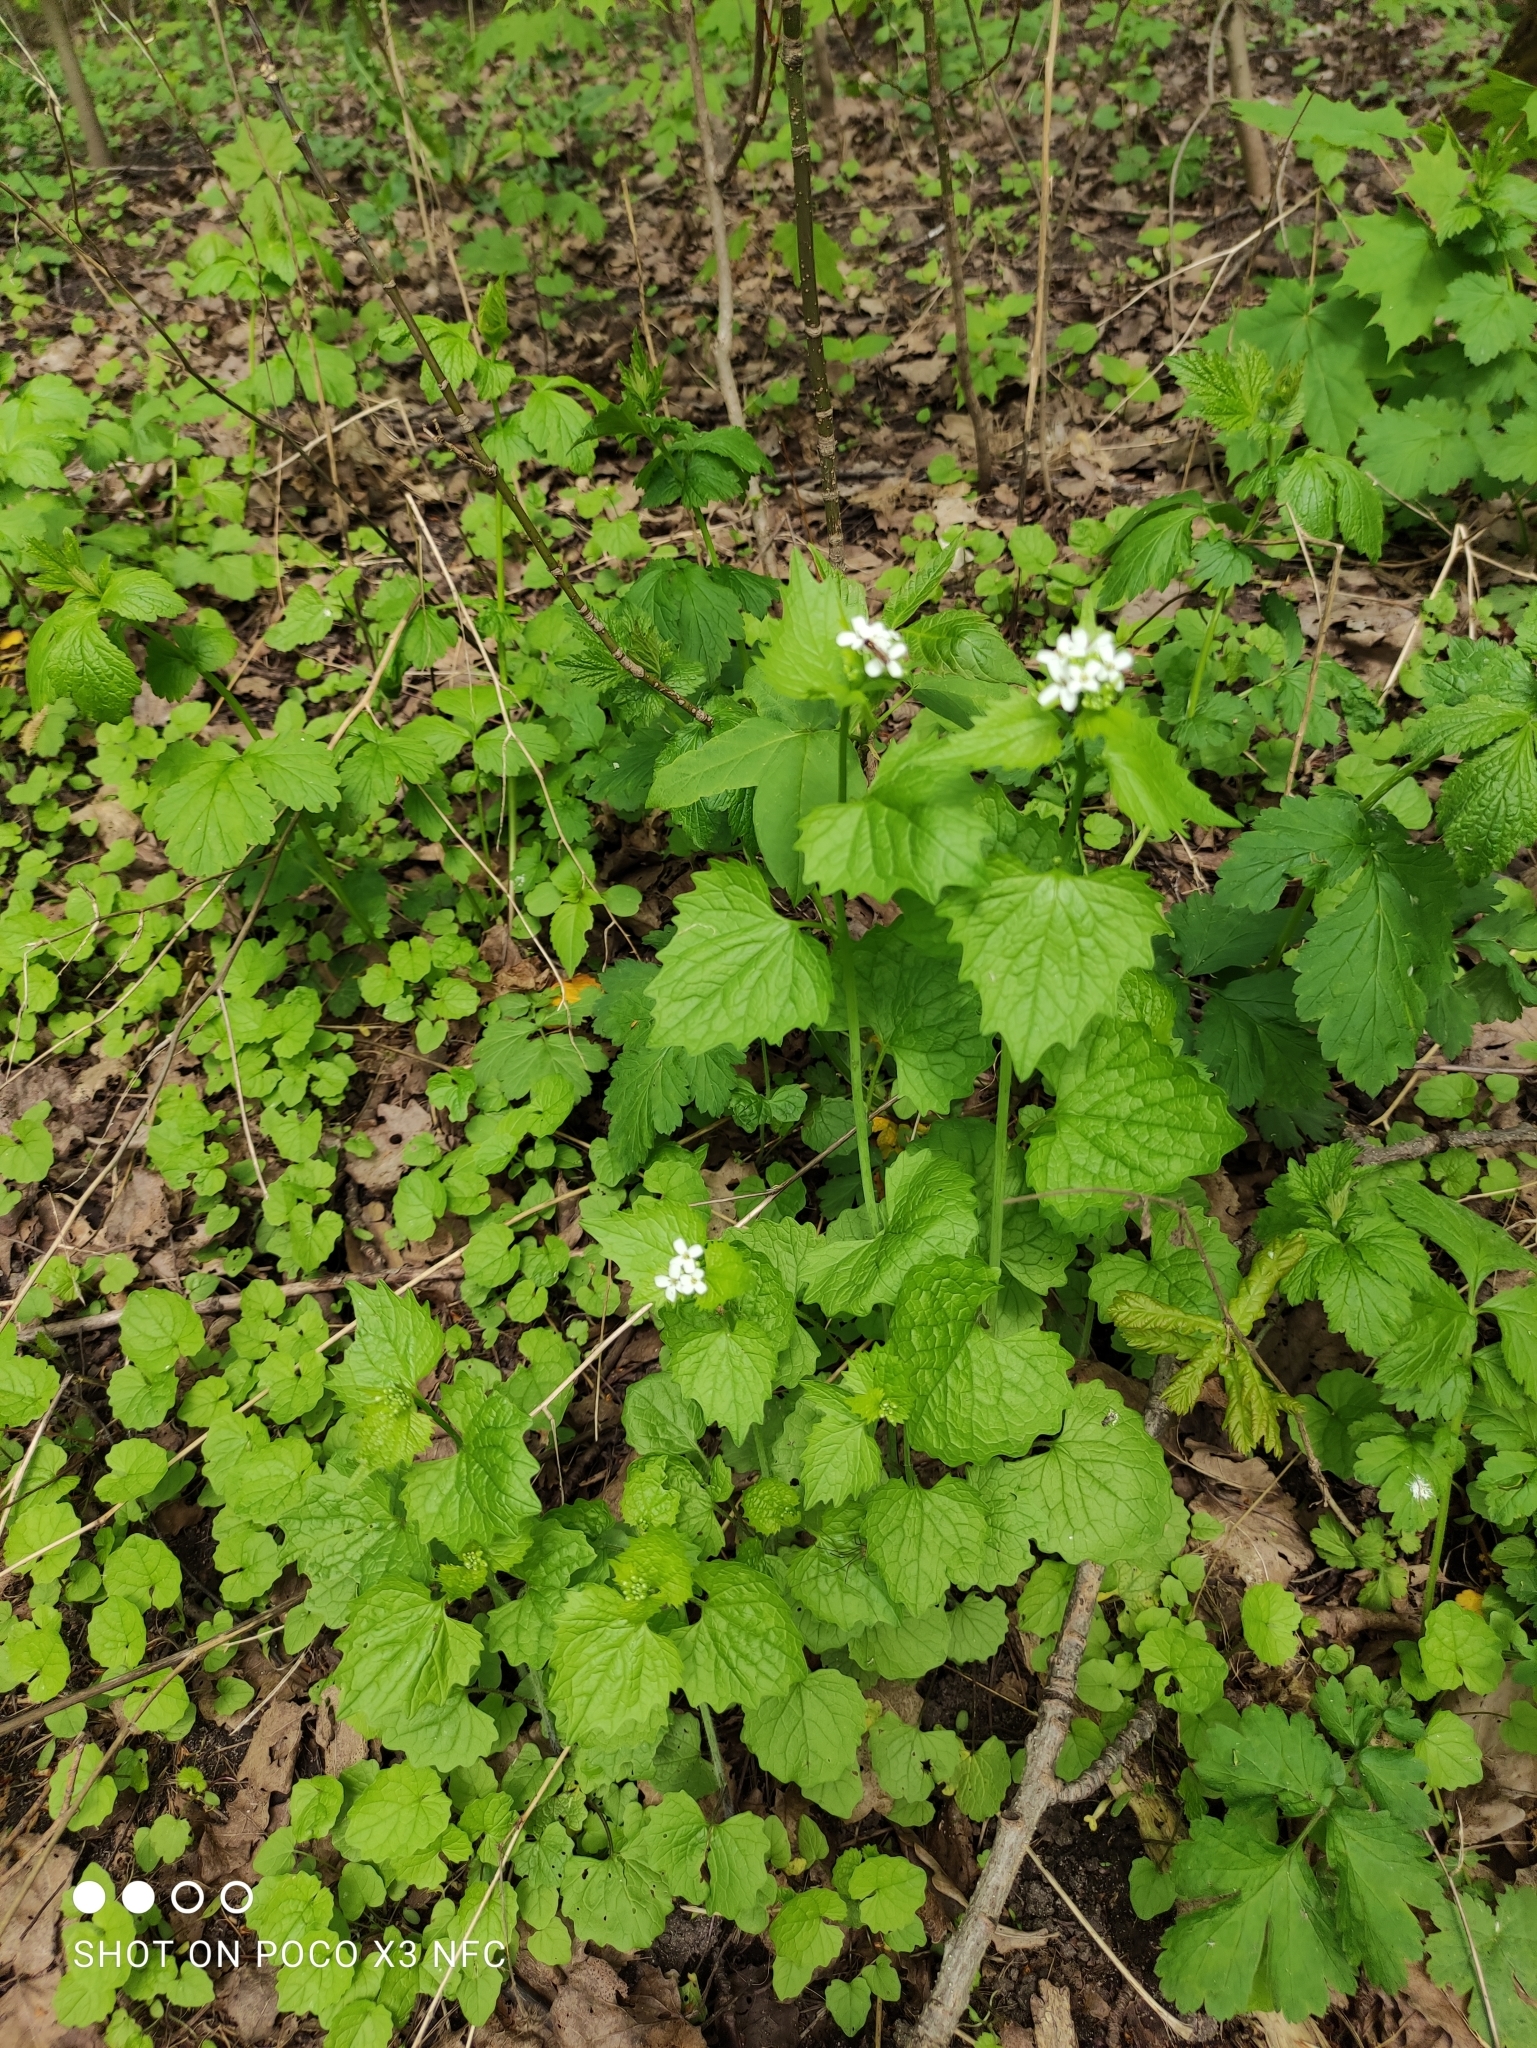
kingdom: Plantae
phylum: Tracheophyta
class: Magnoliopsida
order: Brassicales
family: Brassicaceae
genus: Alliaria
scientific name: Alliaria petiolata
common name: Garlic mustard
